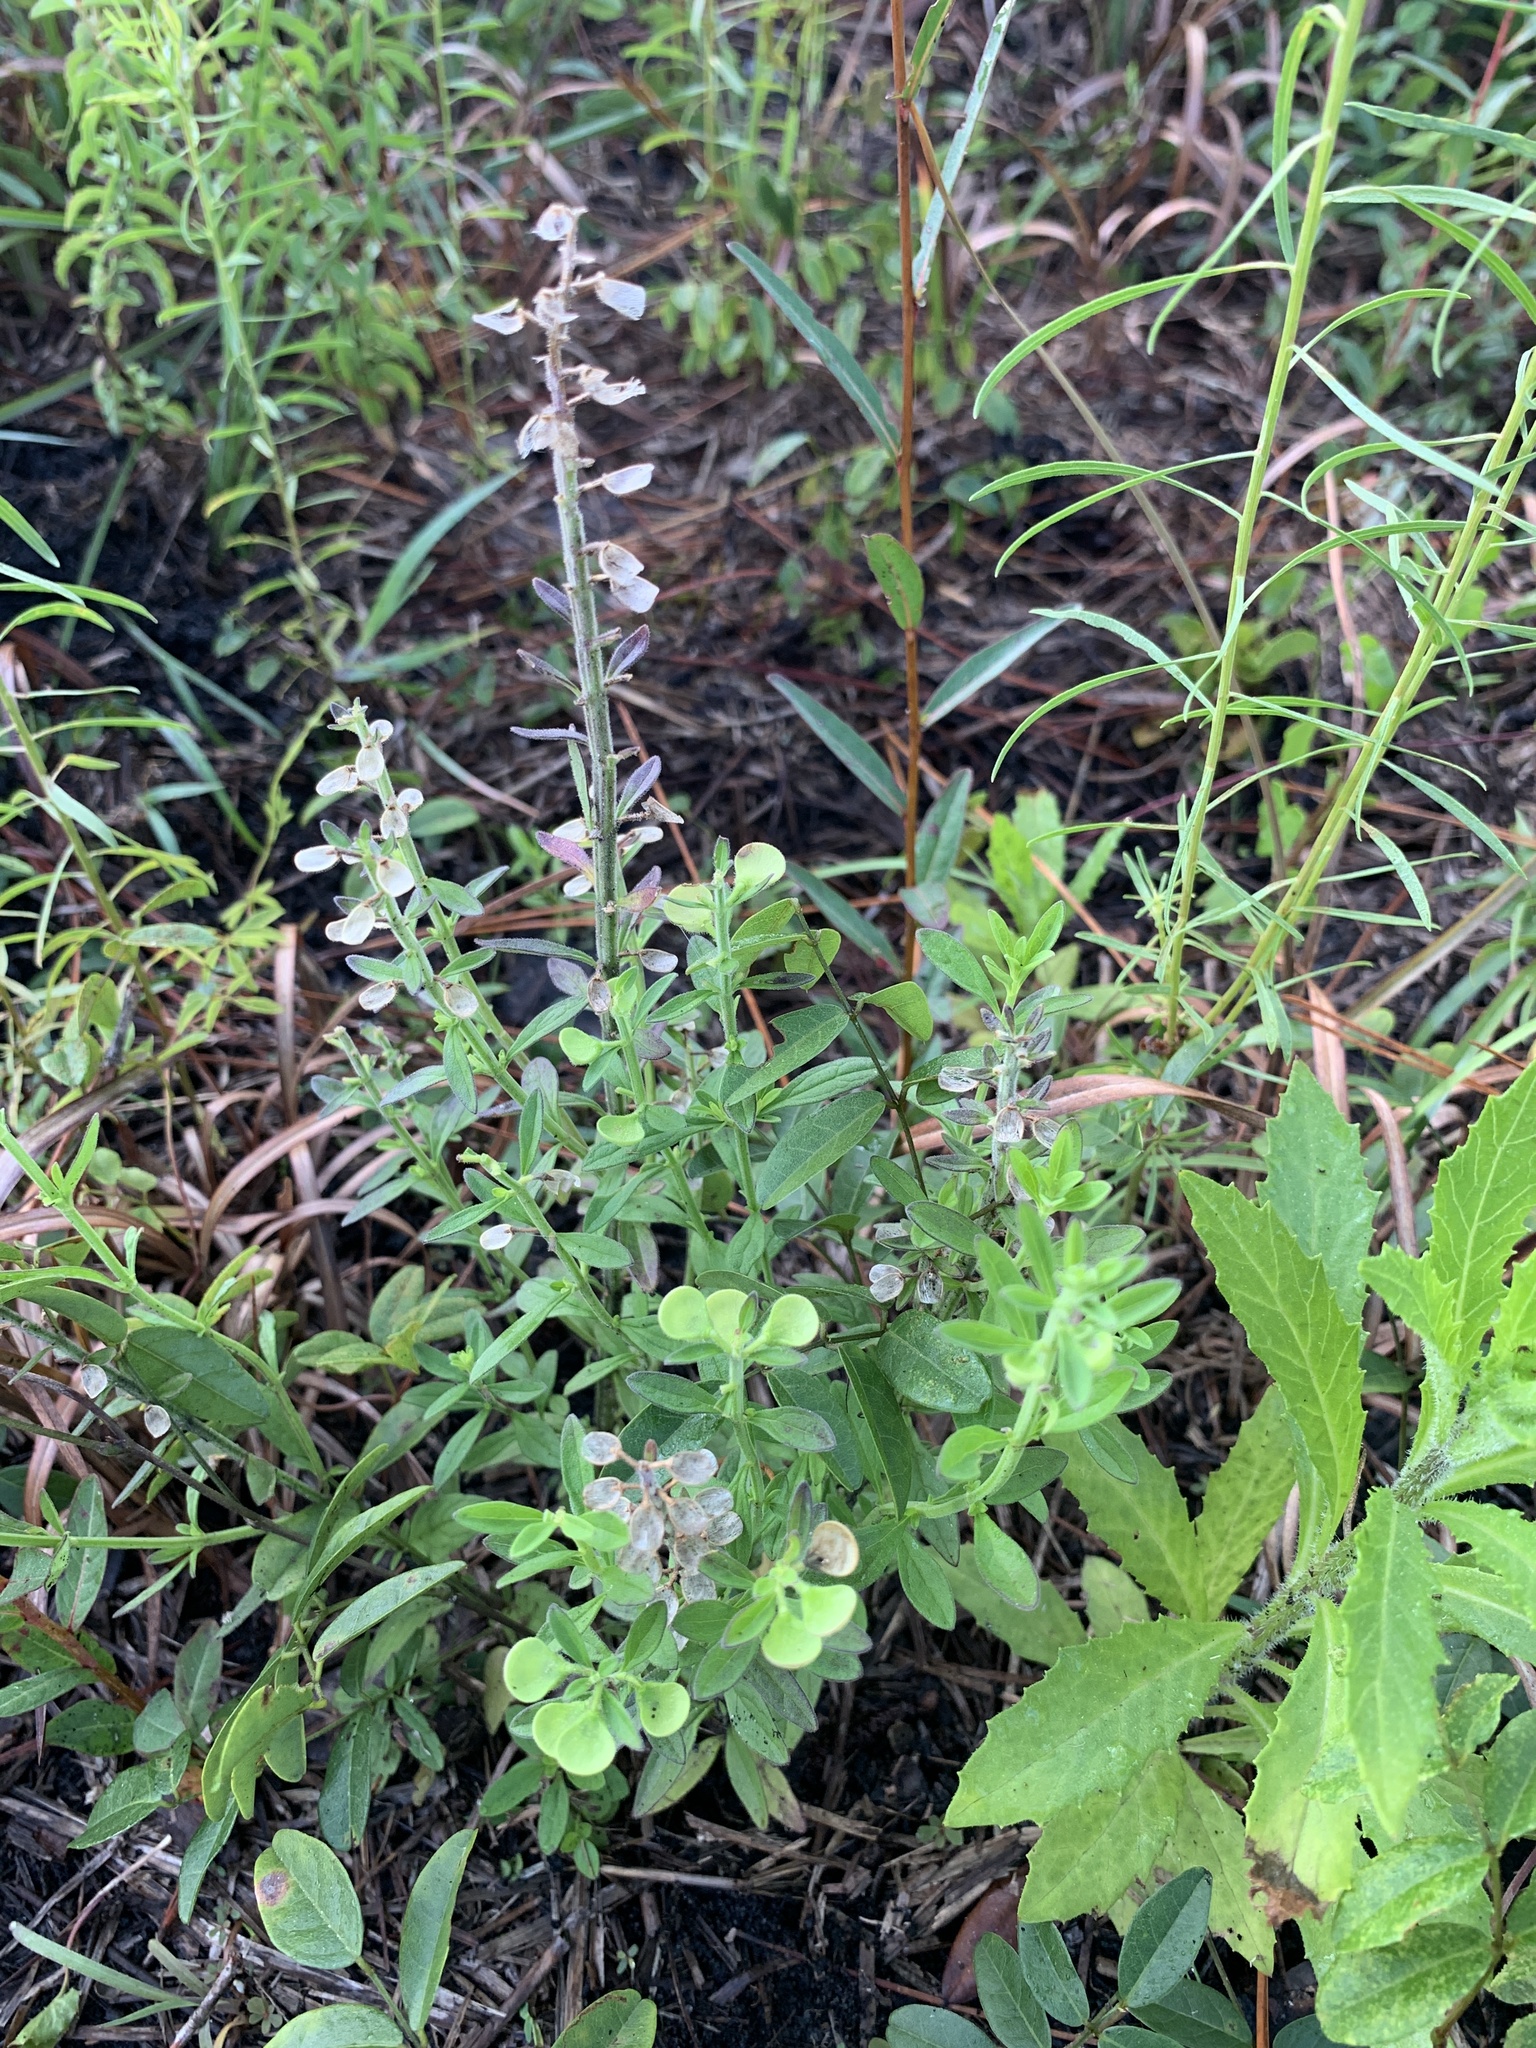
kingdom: Plantae
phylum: Tracheophyta
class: Magnoliopsida
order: Lamiales
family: Lamiaceae
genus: Scutellaria
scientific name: Scutellaria integrifolia
